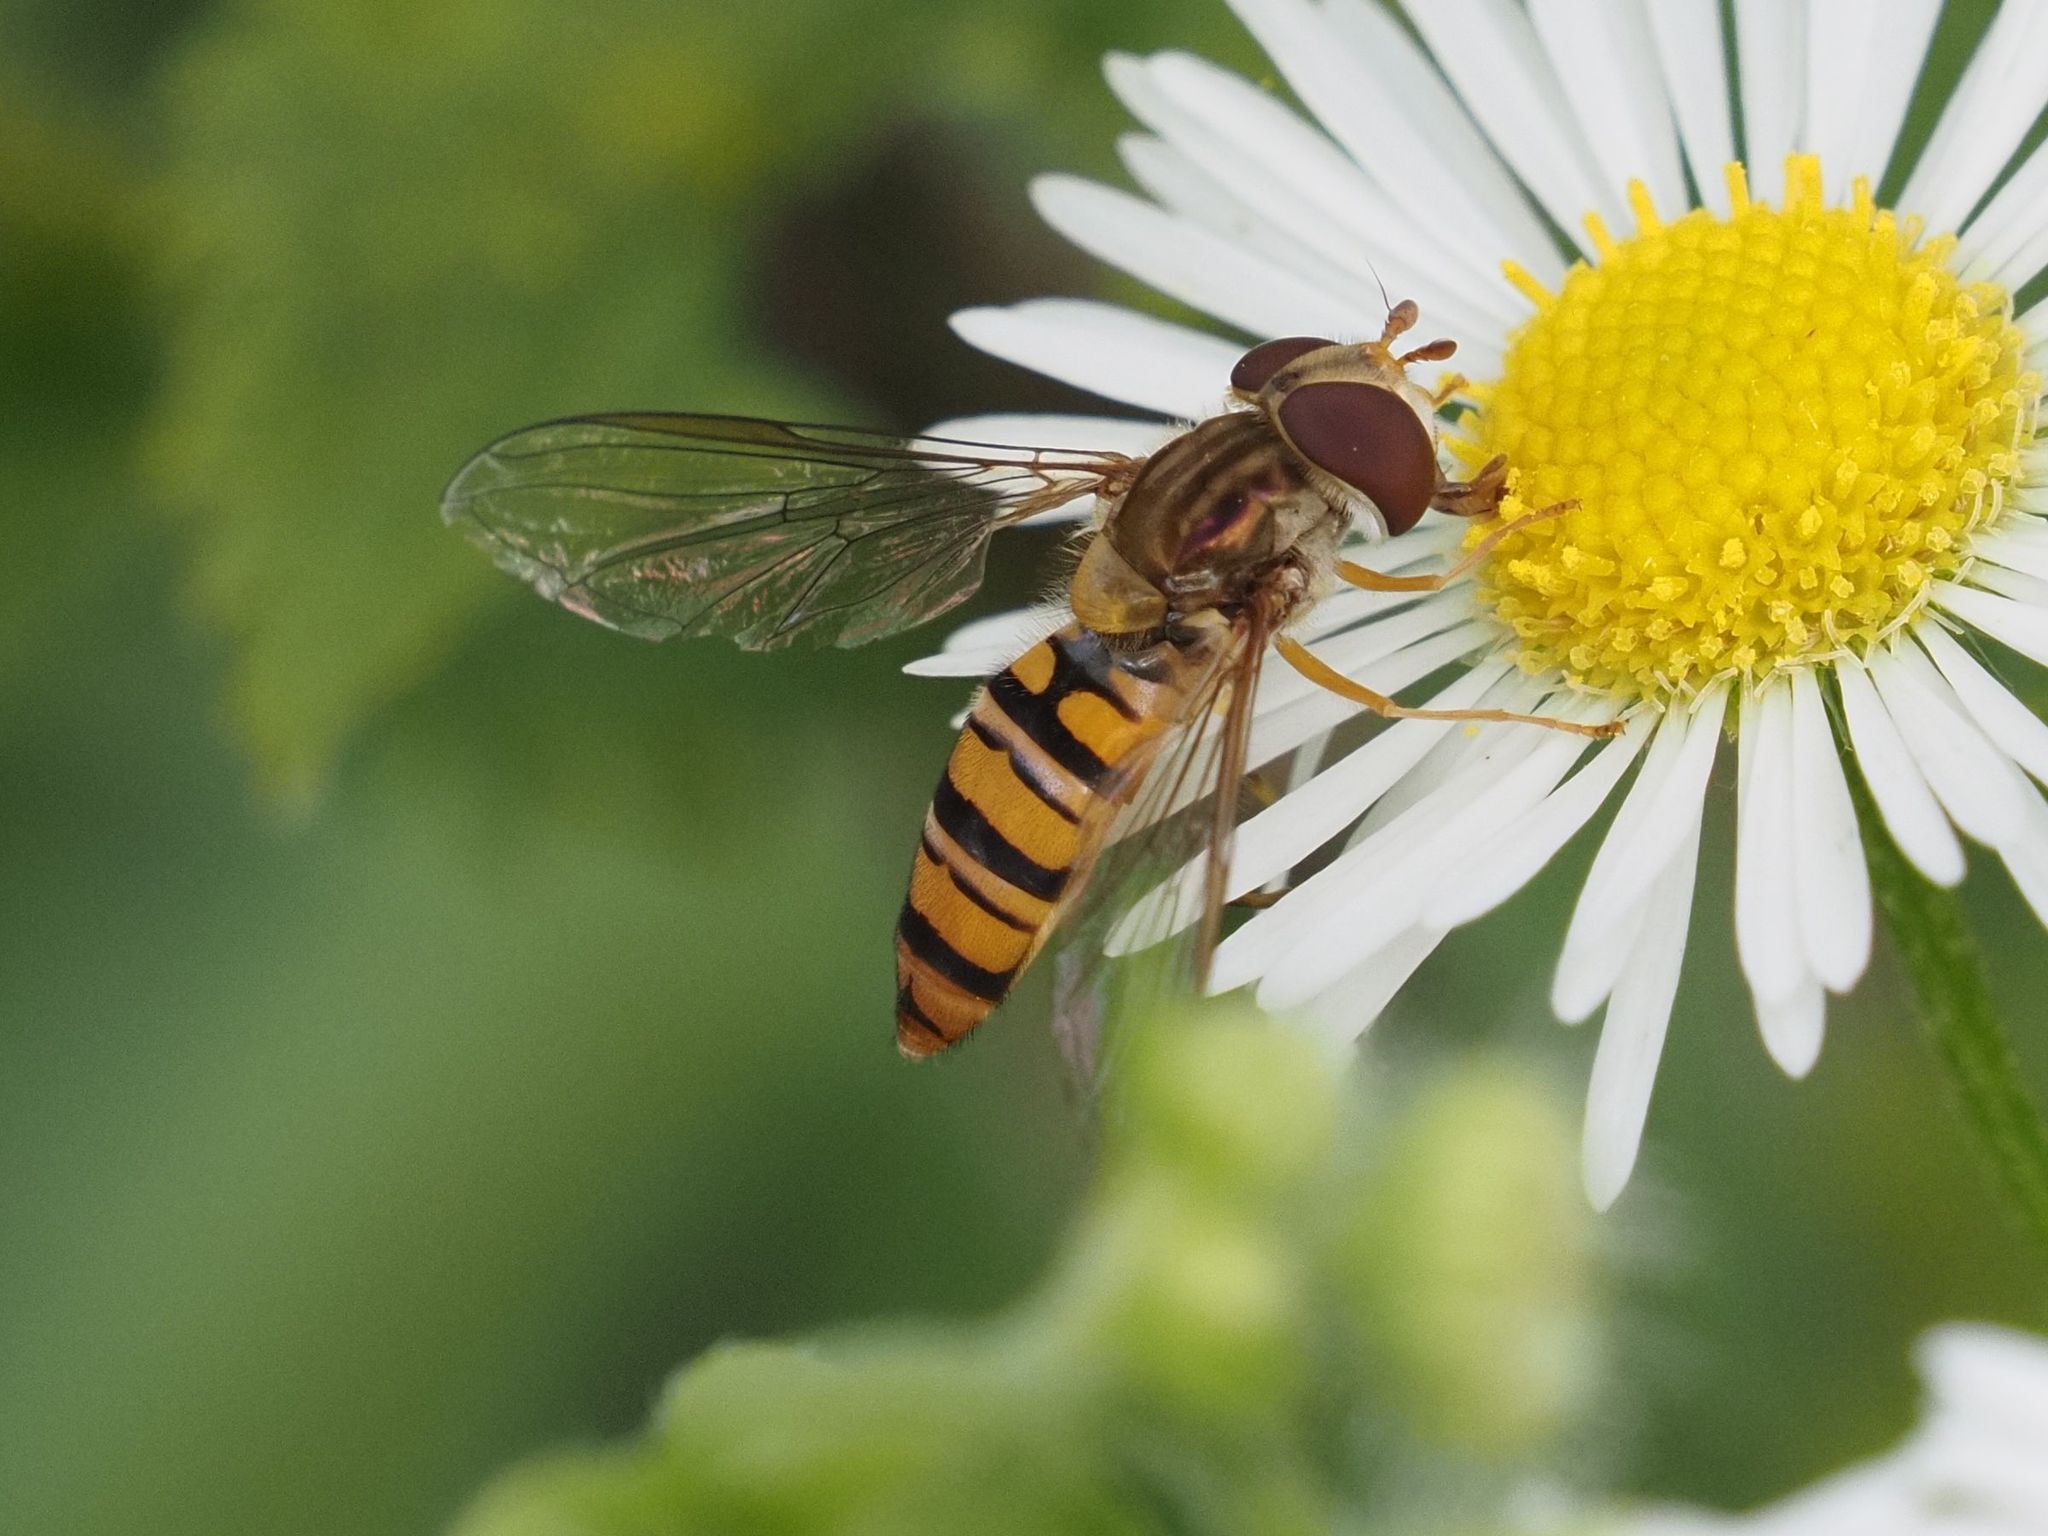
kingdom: Animalia
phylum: Arthropoda
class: Insecta
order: Diptera
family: Syrphidae
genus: Episyrphus
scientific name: Episyrphus balteatus
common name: Marmalade hoverfly
